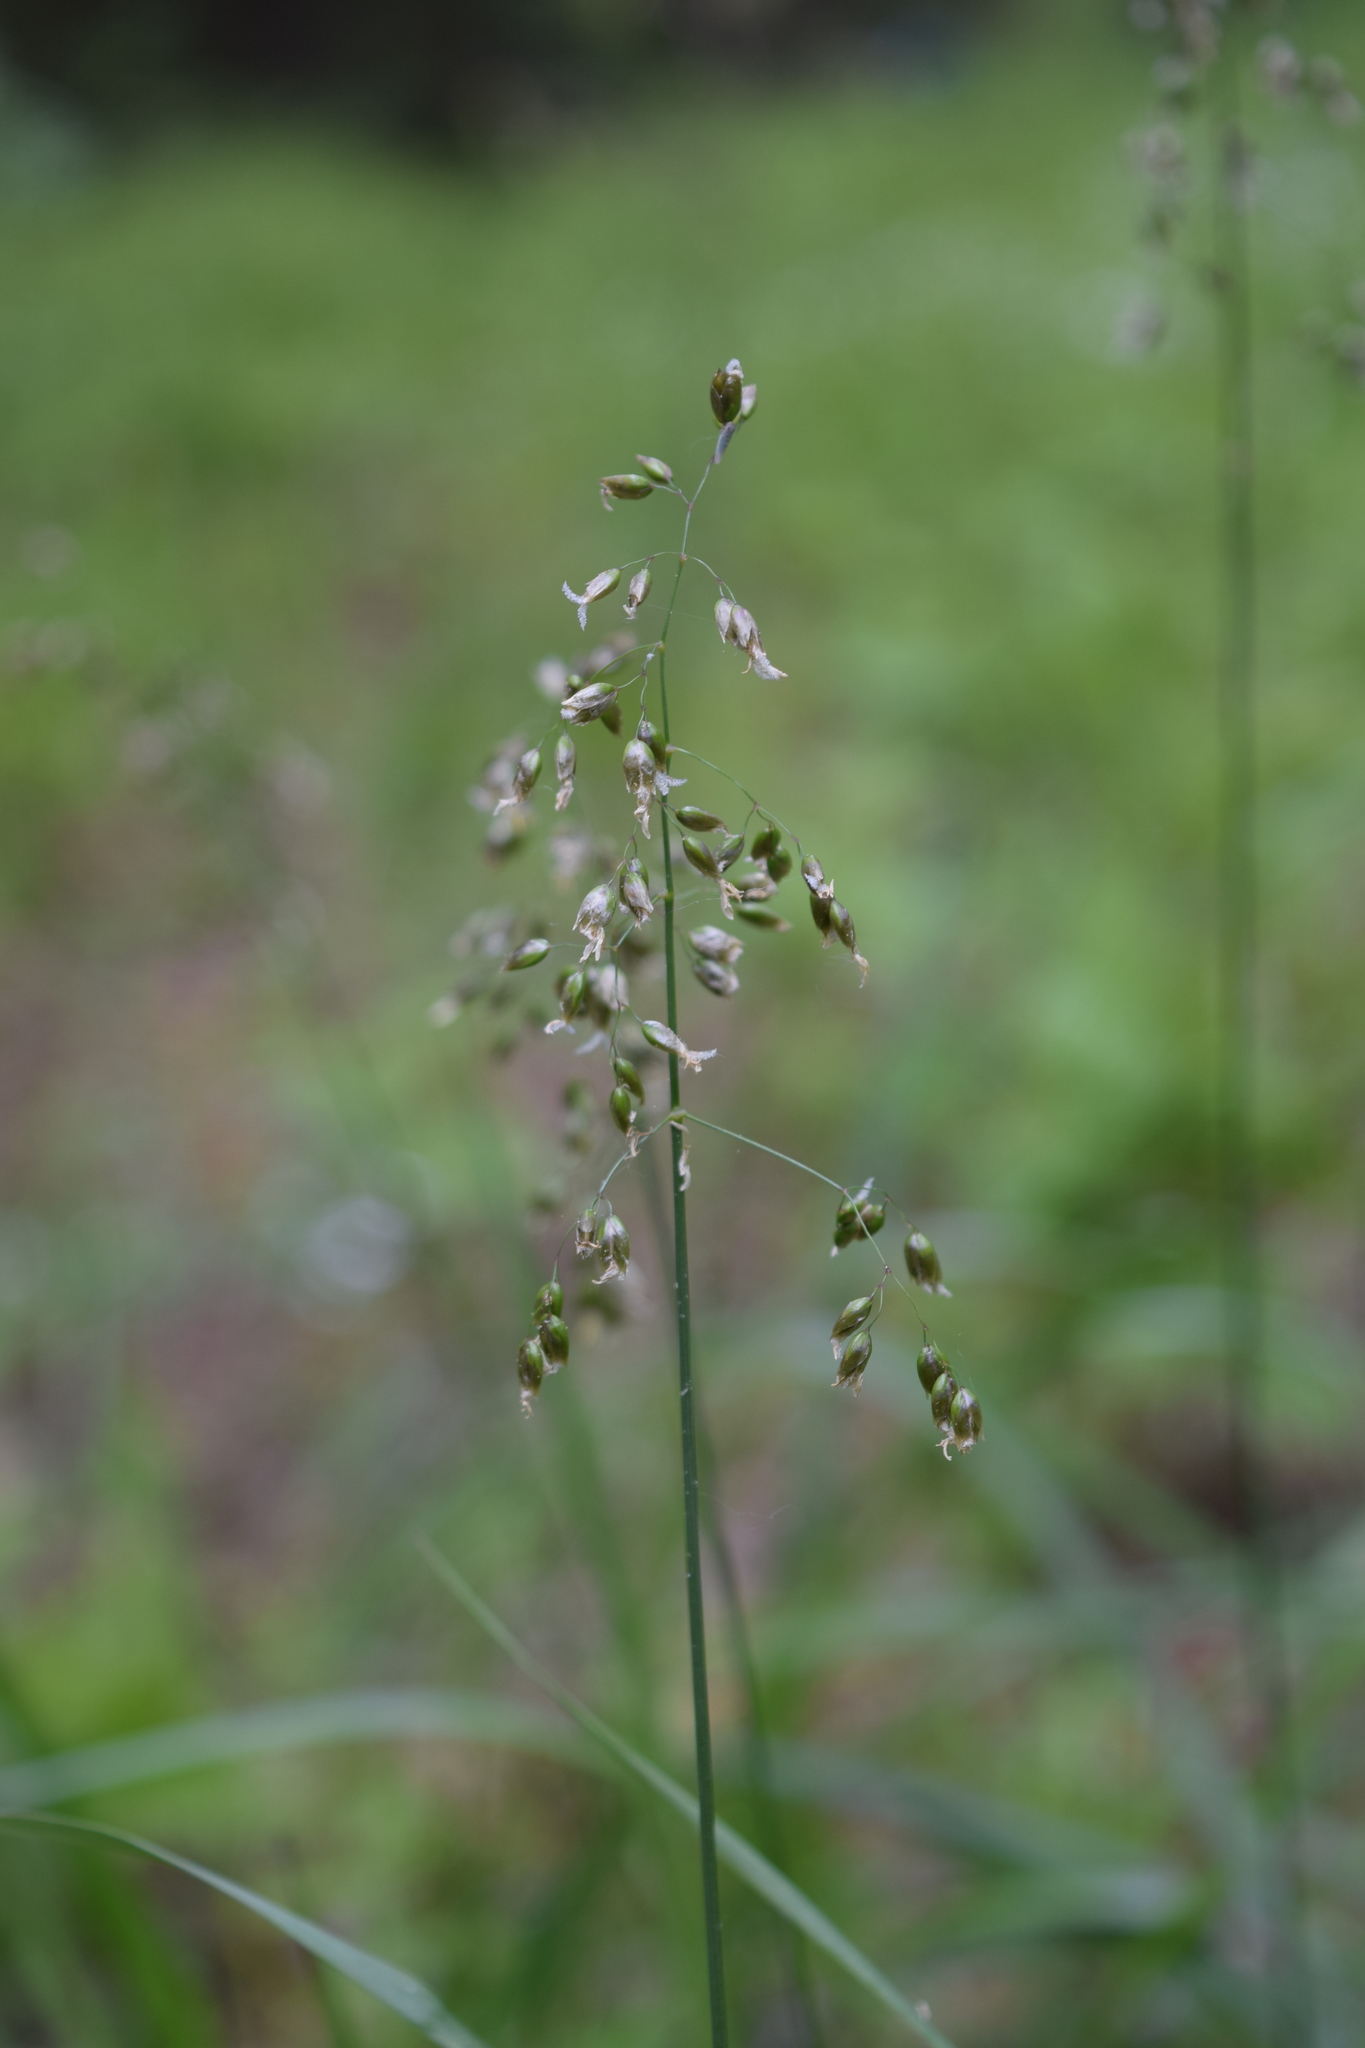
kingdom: Plantae
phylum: Tracheophyta
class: Liliopsida
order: Poales
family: Poaceae
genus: Anthoxanthum
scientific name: Anthoxanthum nitens
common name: Holy grass
